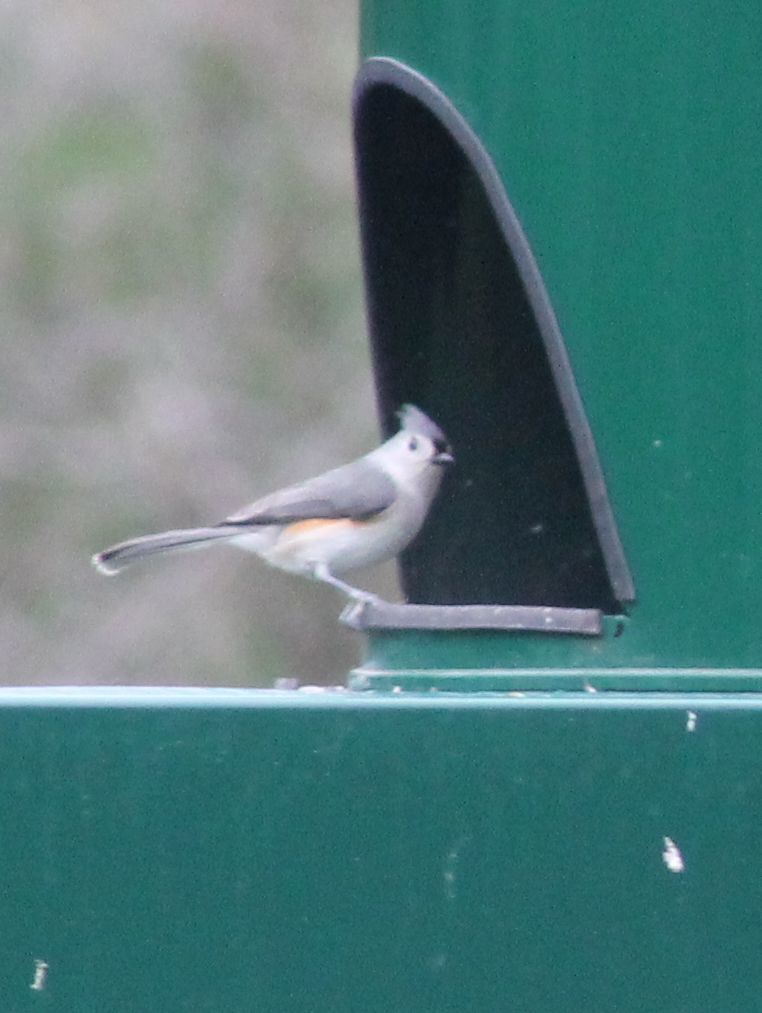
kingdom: Animalia
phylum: Chordata
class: Aves
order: Passeriformes
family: Paridae
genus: Baeolophus
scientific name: Baeolophus bicolor
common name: Tufted titmouse
